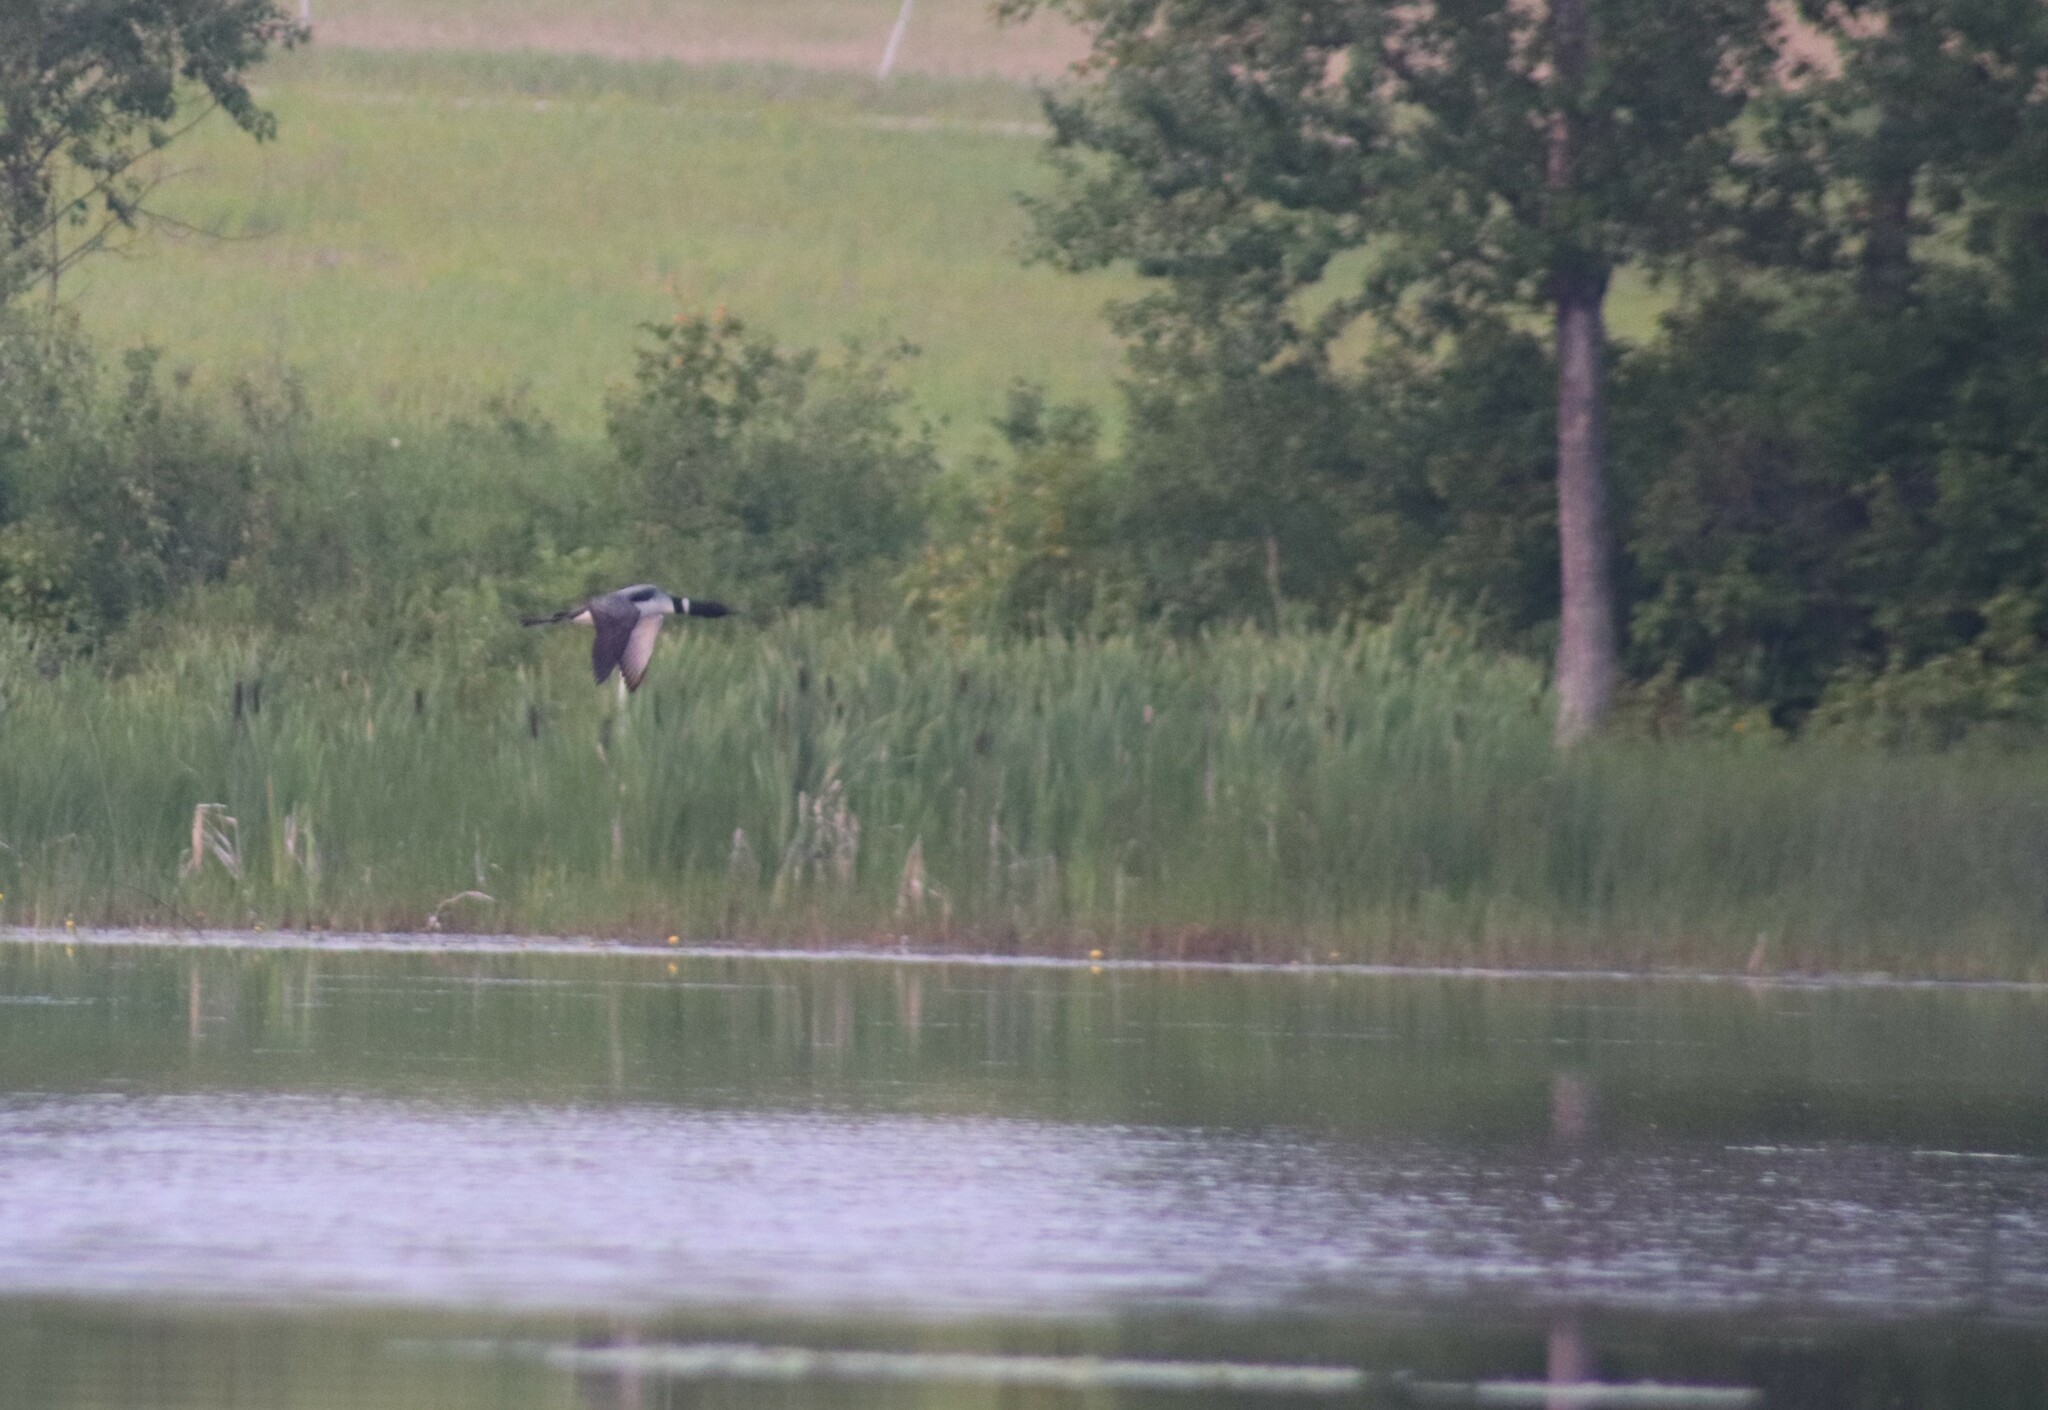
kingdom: Animalia
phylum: Chordata
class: Aves
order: Gaviiformes
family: Gaviidae
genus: Gavia
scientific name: Gavia immer
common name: Common loon
